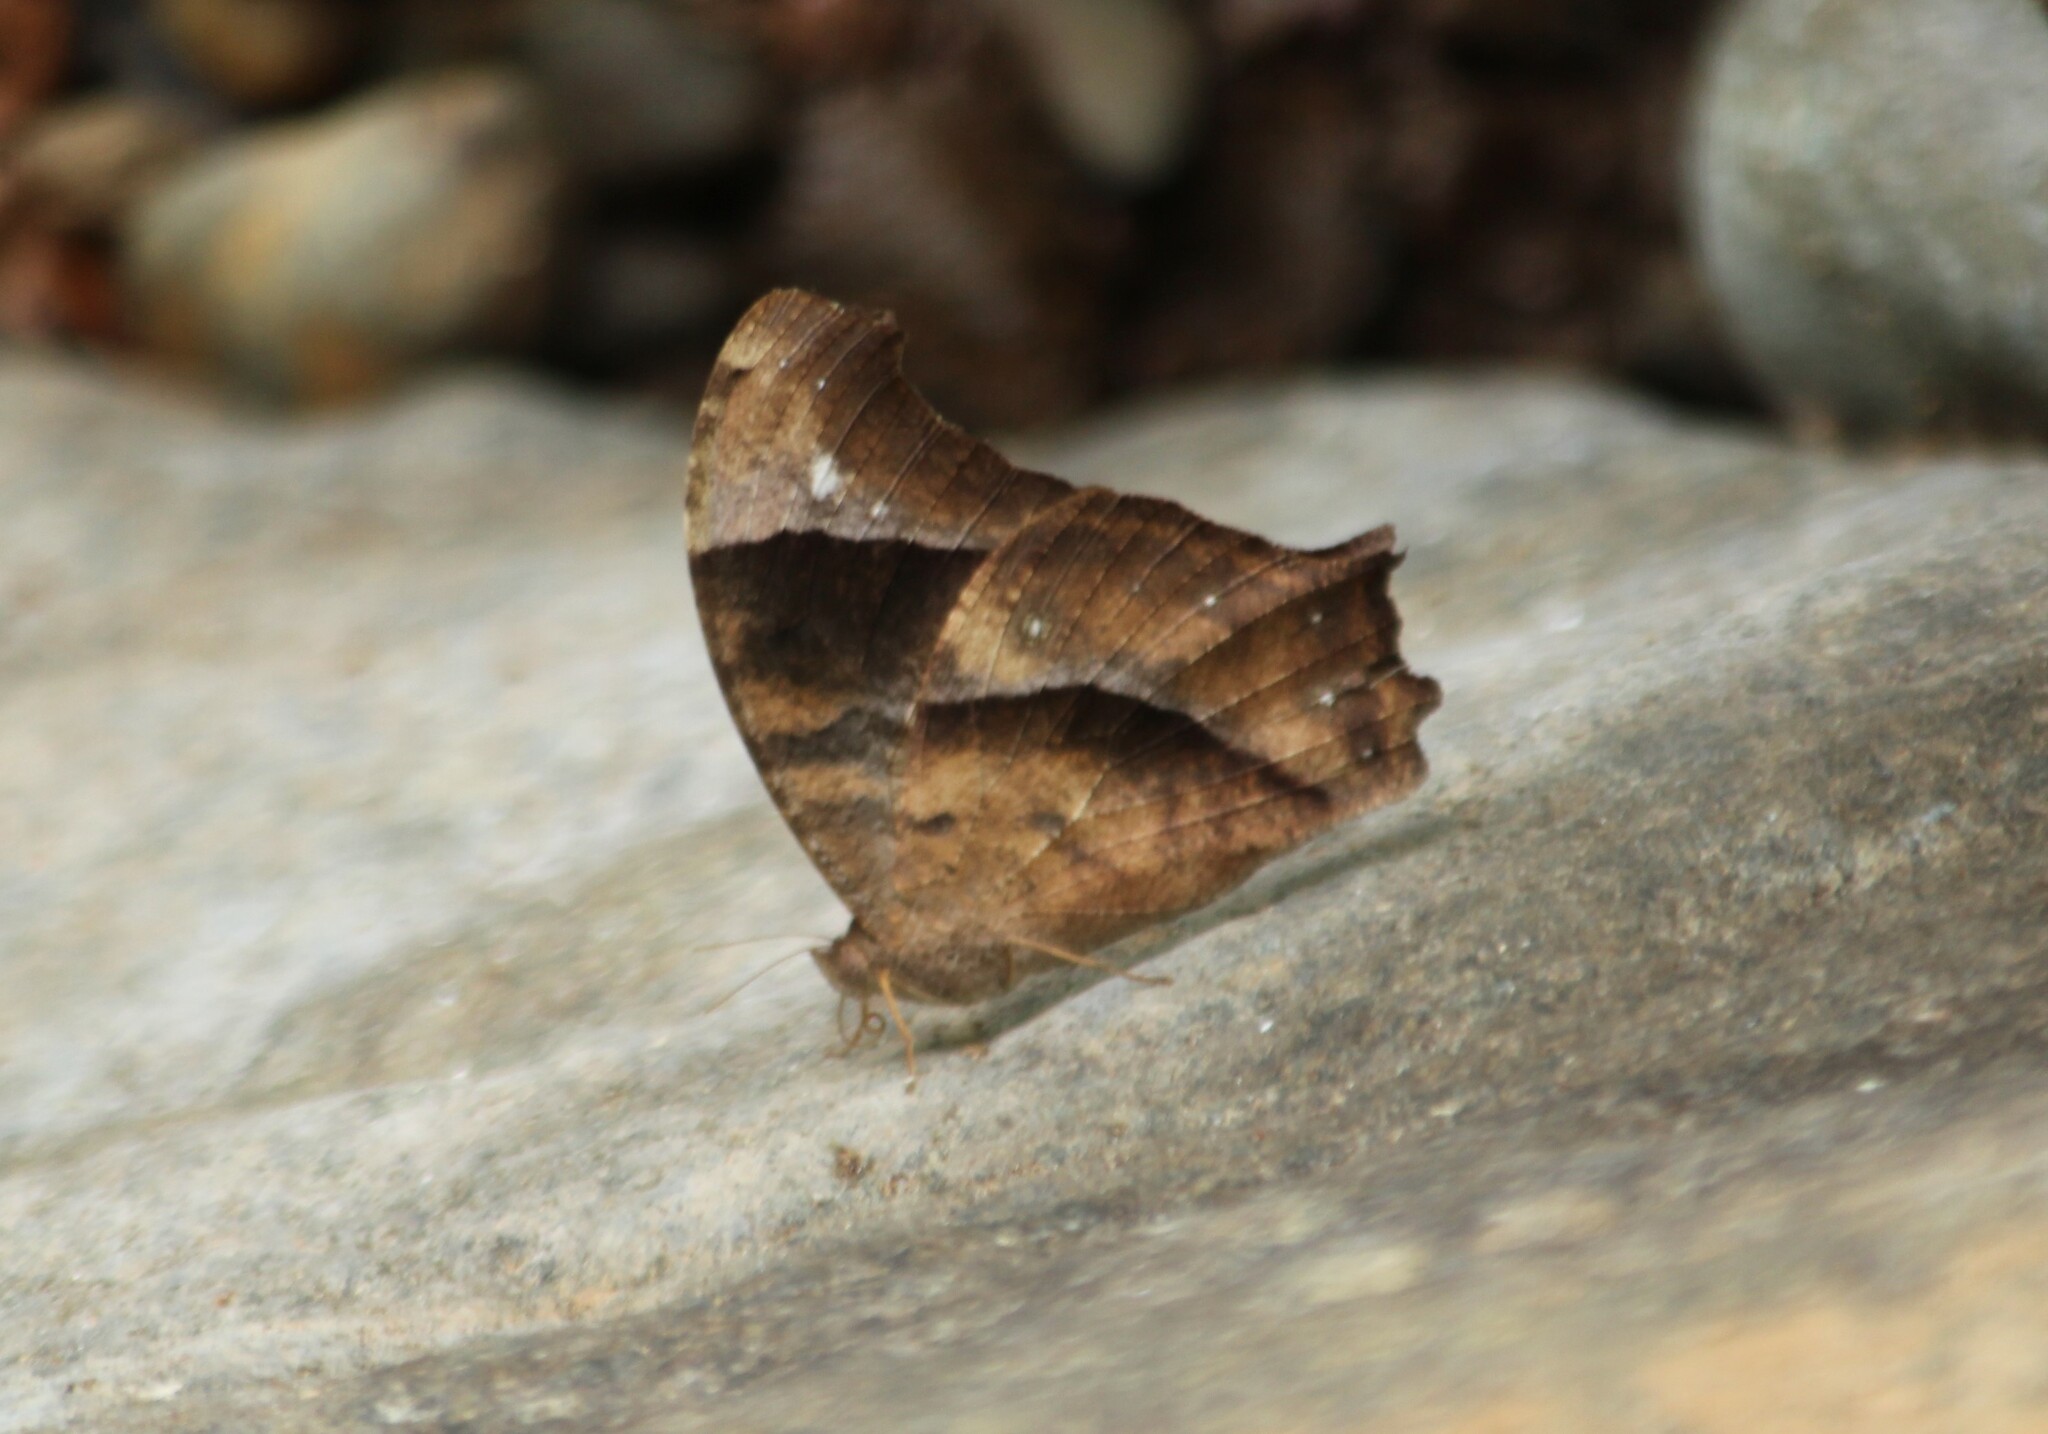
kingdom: Animalia
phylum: Arthropoda
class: Insecta
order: Lepidoptera
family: Nymphalidae
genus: Melanitis
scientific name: Melanitis leda
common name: Twilight brown
